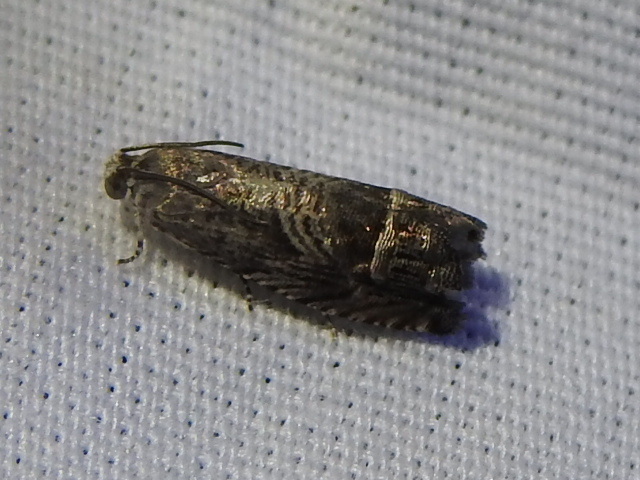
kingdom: Animalia
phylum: Arthropoda
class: Insecta
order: Lepidoptera
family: Tortricidae
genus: Ofatulena
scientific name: Ofatulena duodecemstriata
